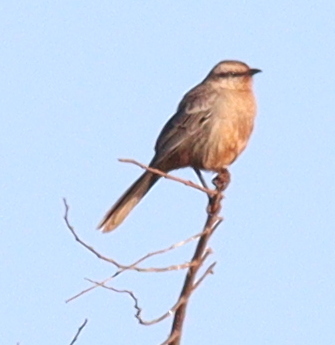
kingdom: Animalia
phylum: Chordata
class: Aves
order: Passeriformes
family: Mimidae
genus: Mimus
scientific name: Mimus saturninus
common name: Chalk-browed mockingbird
